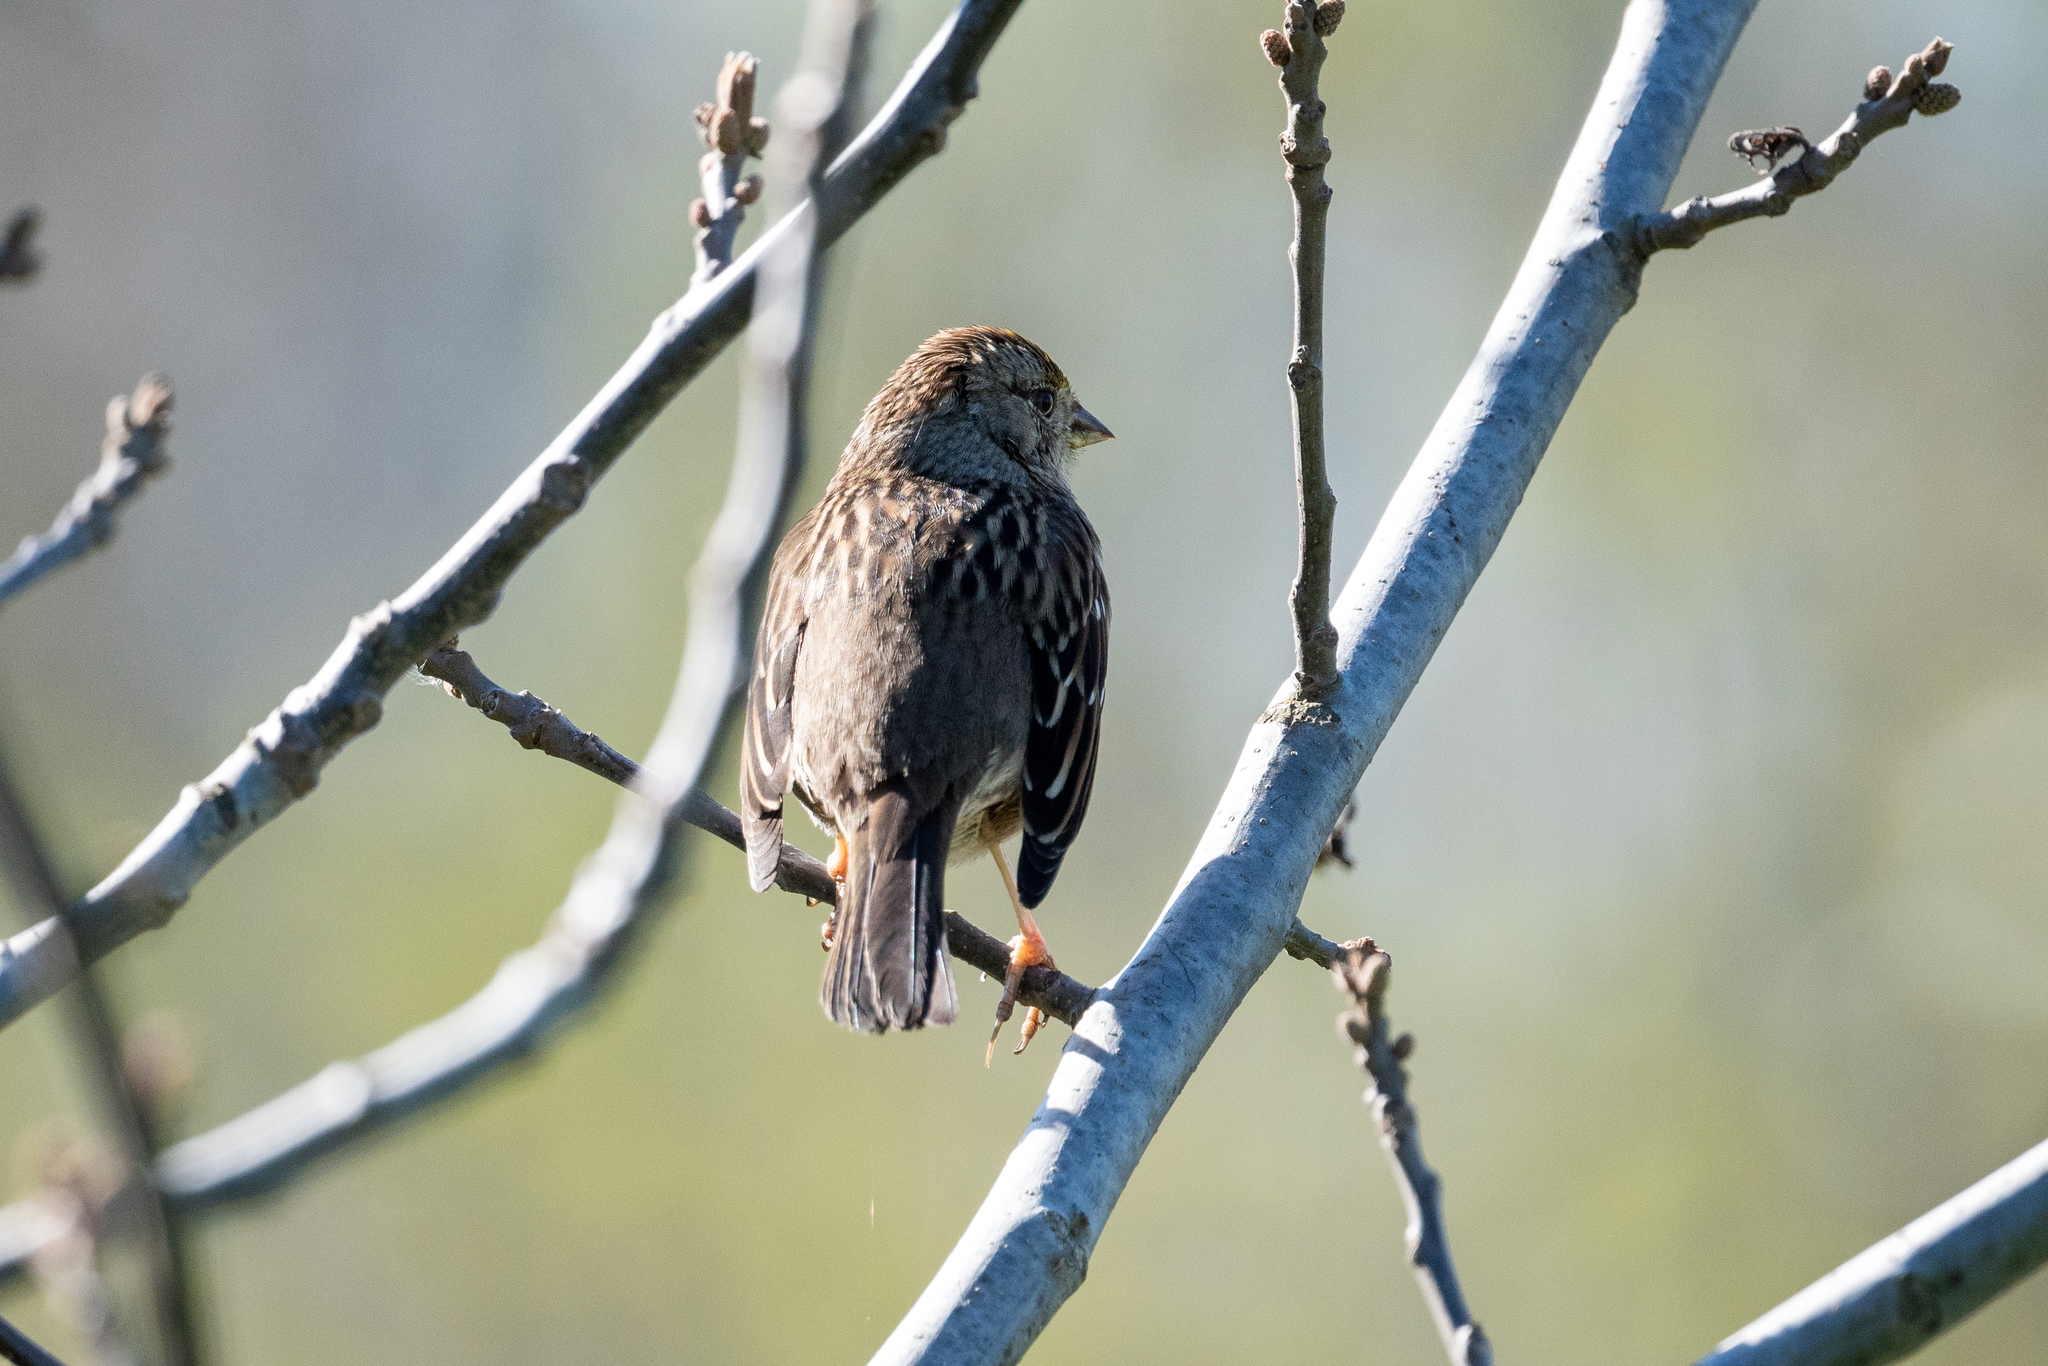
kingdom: Animalia
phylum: Chordata
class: Aves
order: Passeriformes
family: Passerellidae
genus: Zonotrichia
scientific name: Zonotrichia atricapilla
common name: Golden-crowned sparrow
